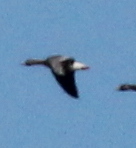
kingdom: Animalia
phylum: Chordata
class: Aves
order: Anseriformes
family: Anatidae
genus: Anser
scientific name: Anser albifrons
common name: Greater white-fronted goose
